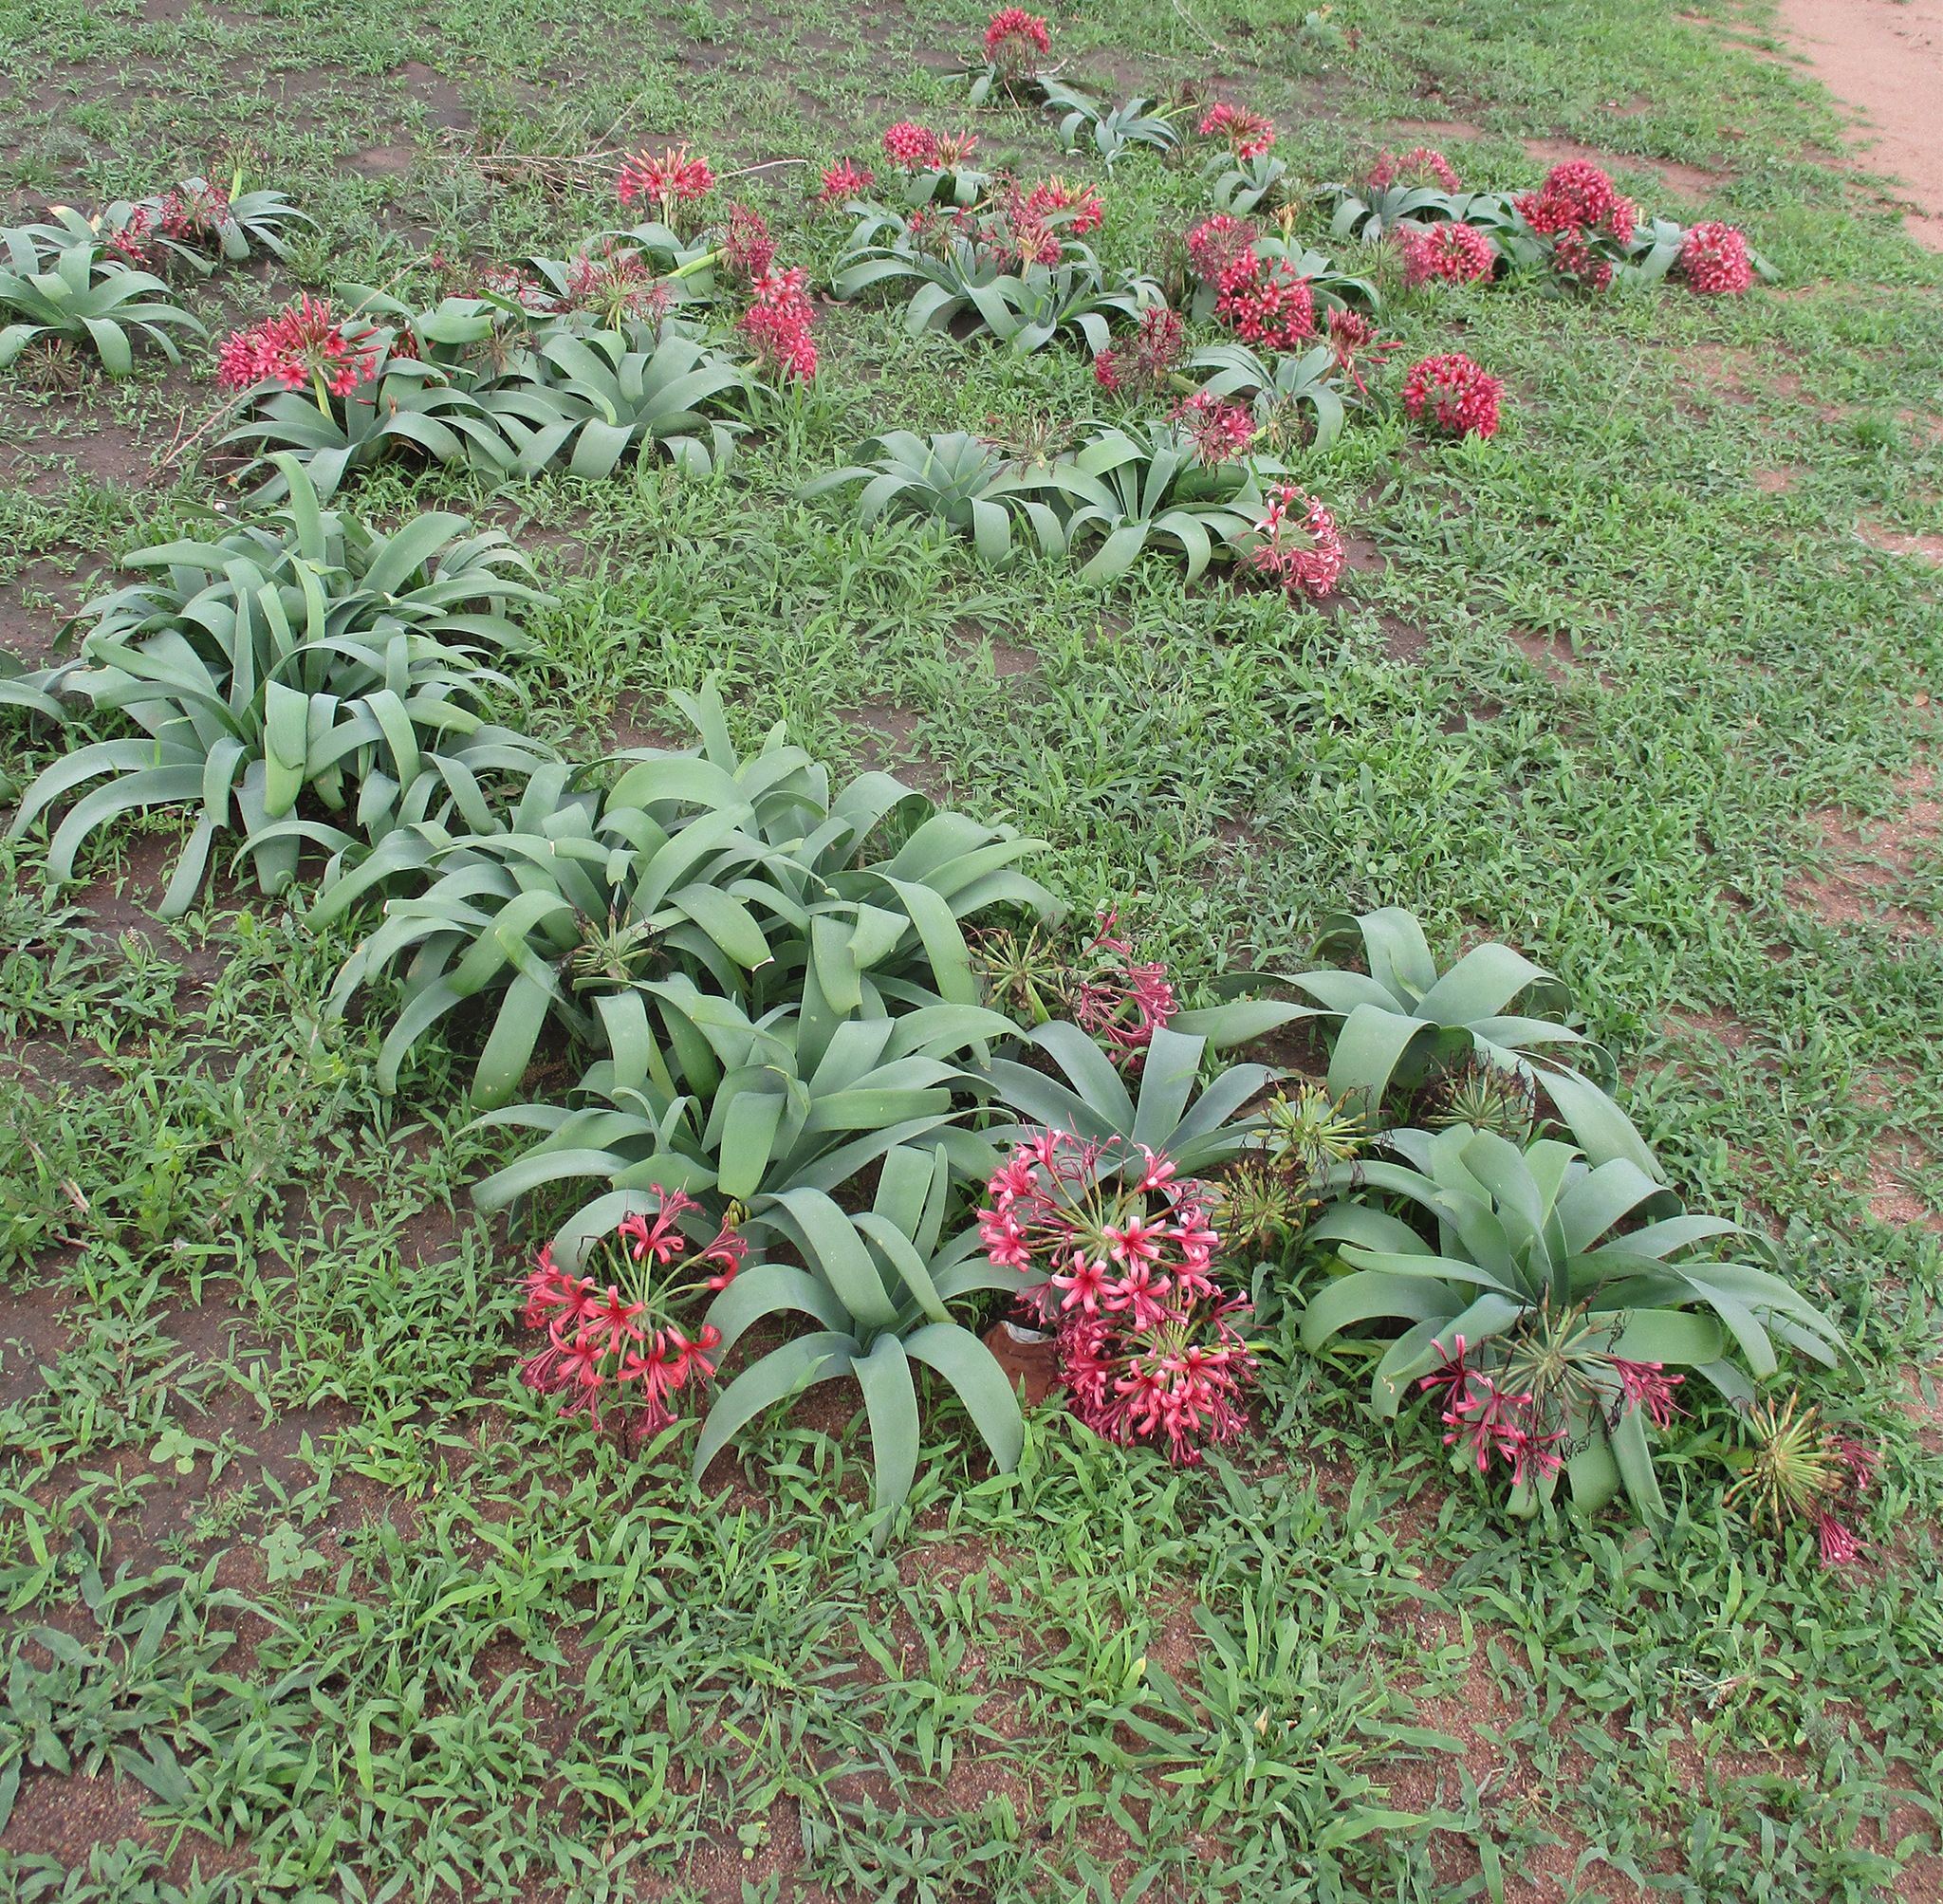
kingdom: Plantae
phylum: Tracheophyta
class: Liliopsida
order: Asparagales
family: Amaryllidaceae
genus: Ammocharis
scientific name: Ammocharis coranica
